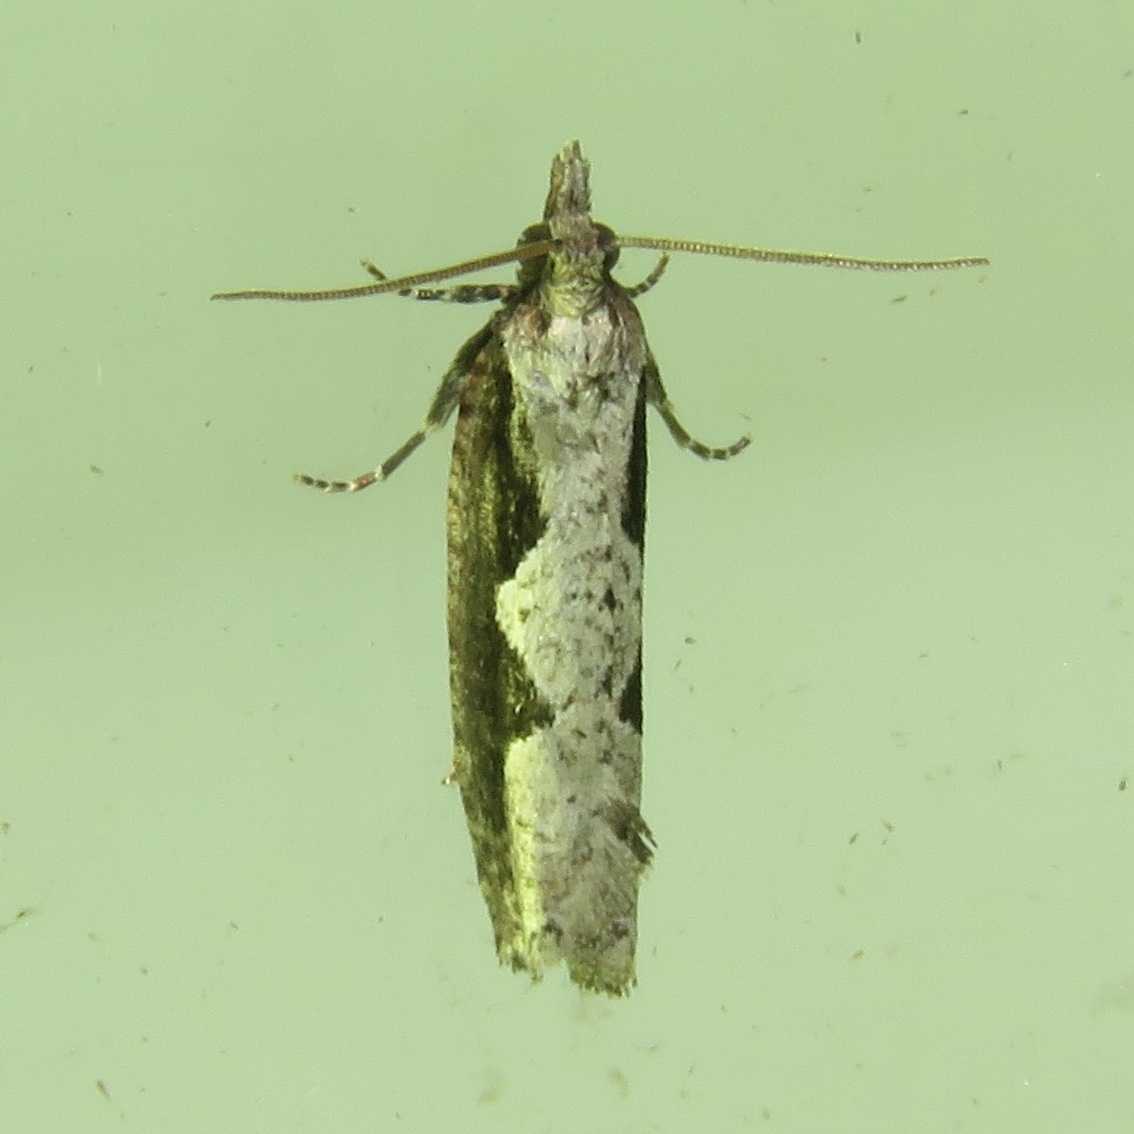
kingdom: Animalia
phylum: Arthropoda
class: Insecta
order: Lepidoptera
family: Tortricidae
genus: Epinotia
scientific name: Epinotia lindana
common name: Diamondback epinotia moth
